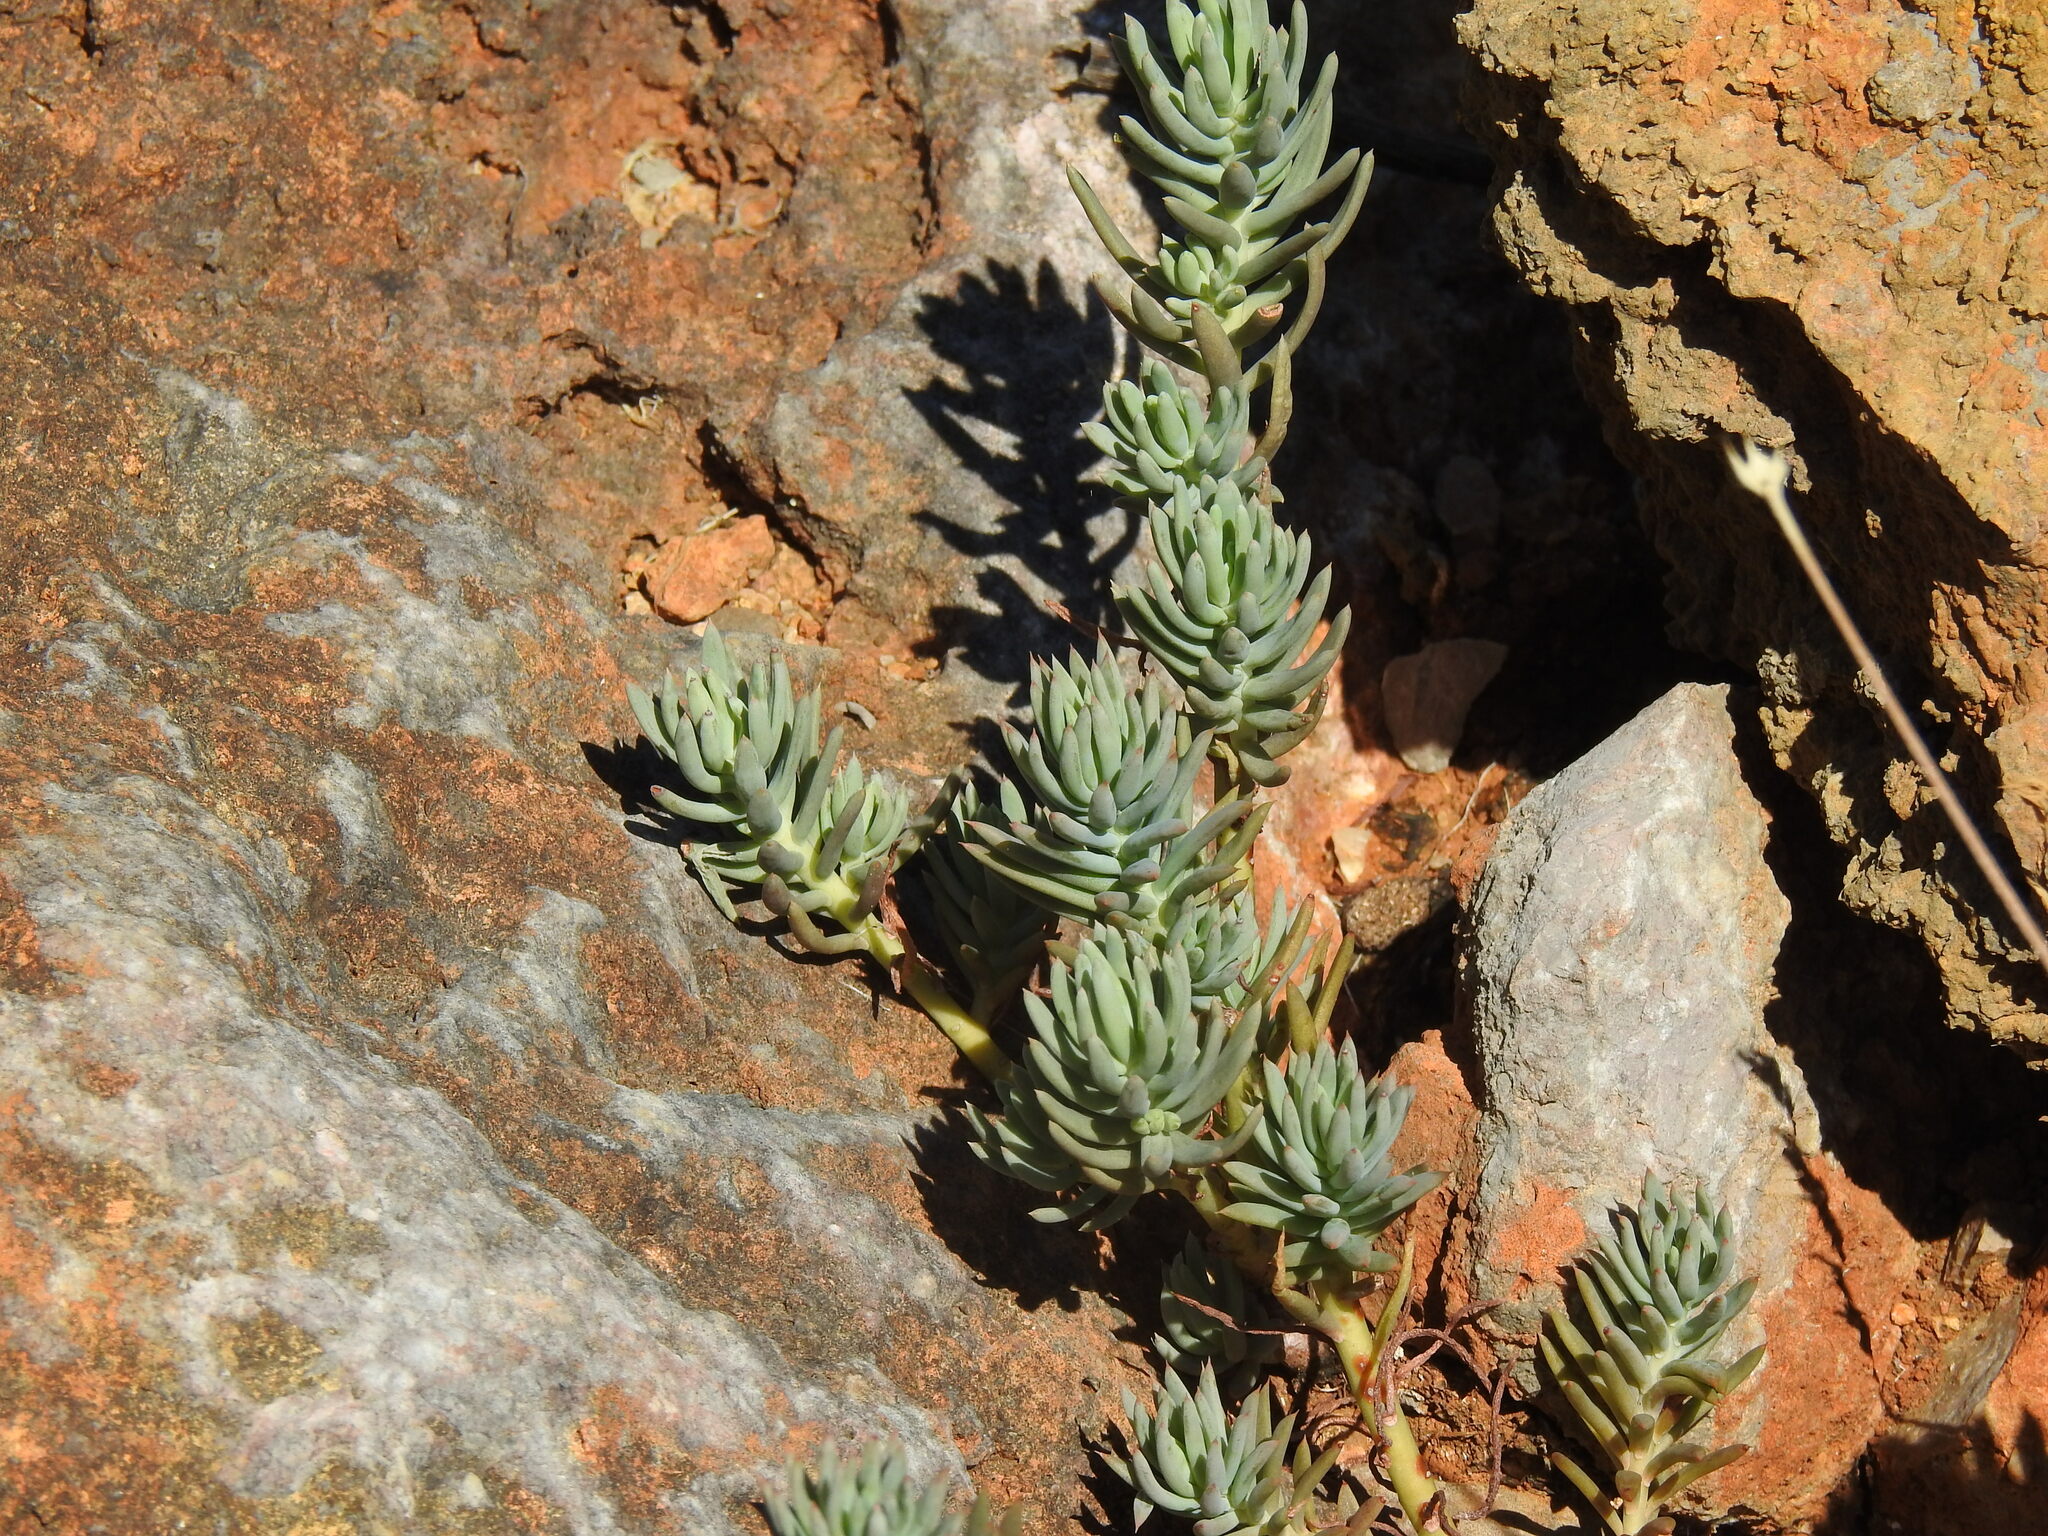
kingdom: Plantae
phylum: Tracheophyta
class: Magnoliopsida
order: Saxifragales
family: Crassulaceae
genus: Petrosedum
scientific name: Petrosedum sediforme
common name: Pale stonecrop
